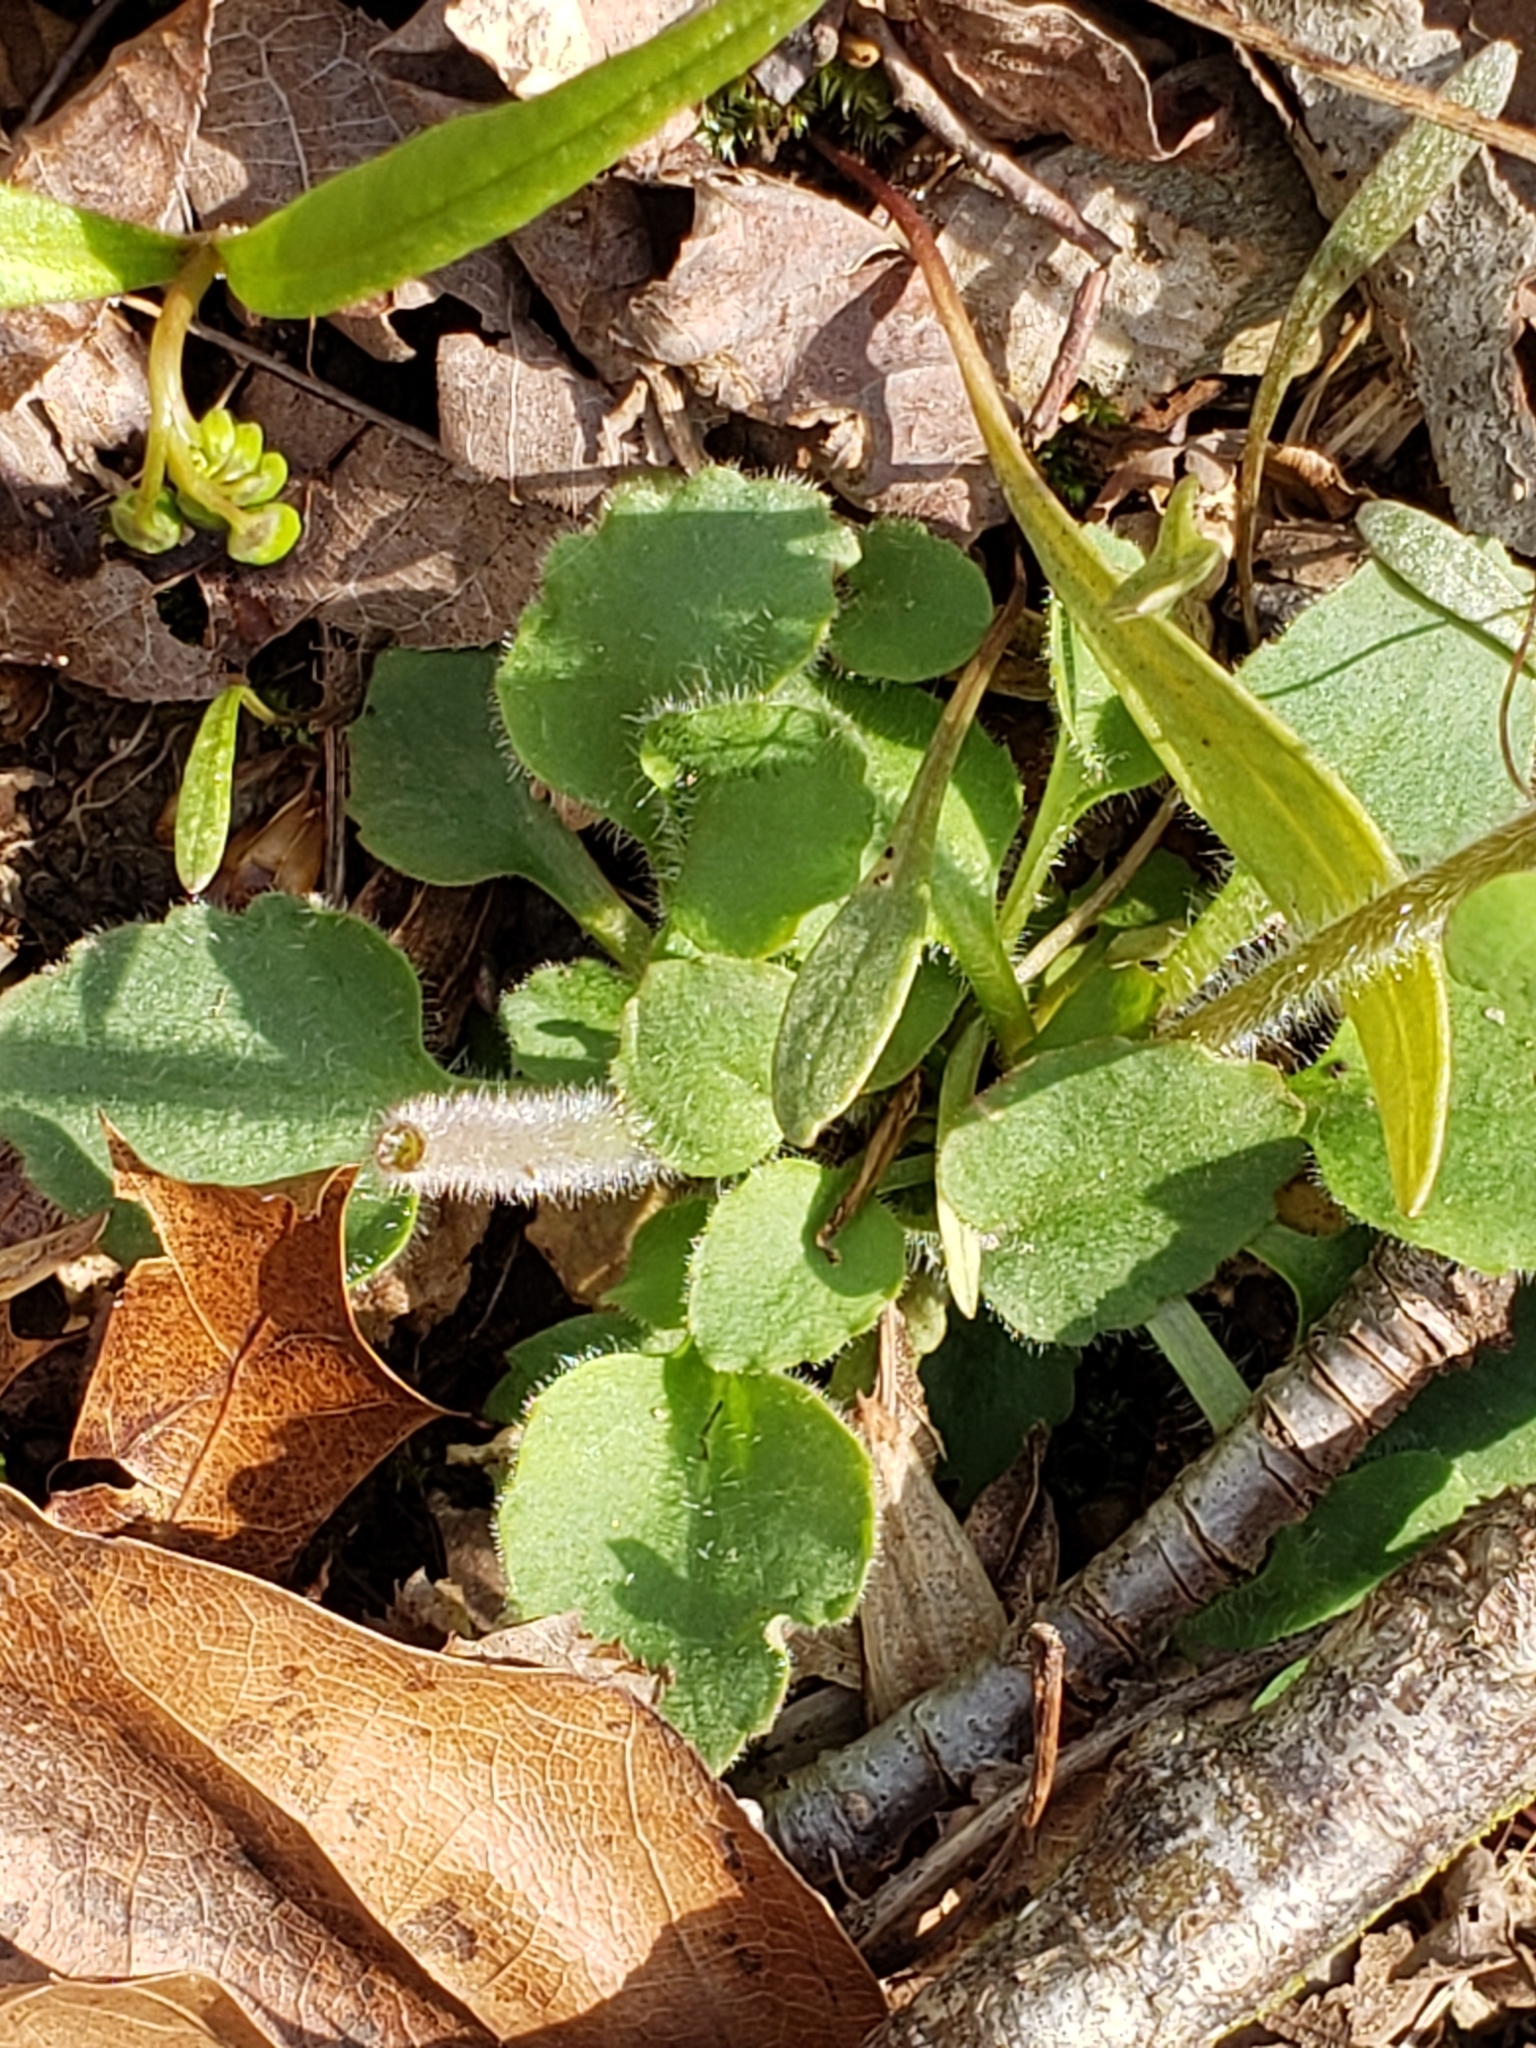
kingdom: Plantae
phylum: Tracheophyta
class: Magnoliopsida
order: Saxifragales
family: Saxifragaceae
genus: Micranthes
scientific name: Micranthes virginiensis
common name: Early saxifrage
